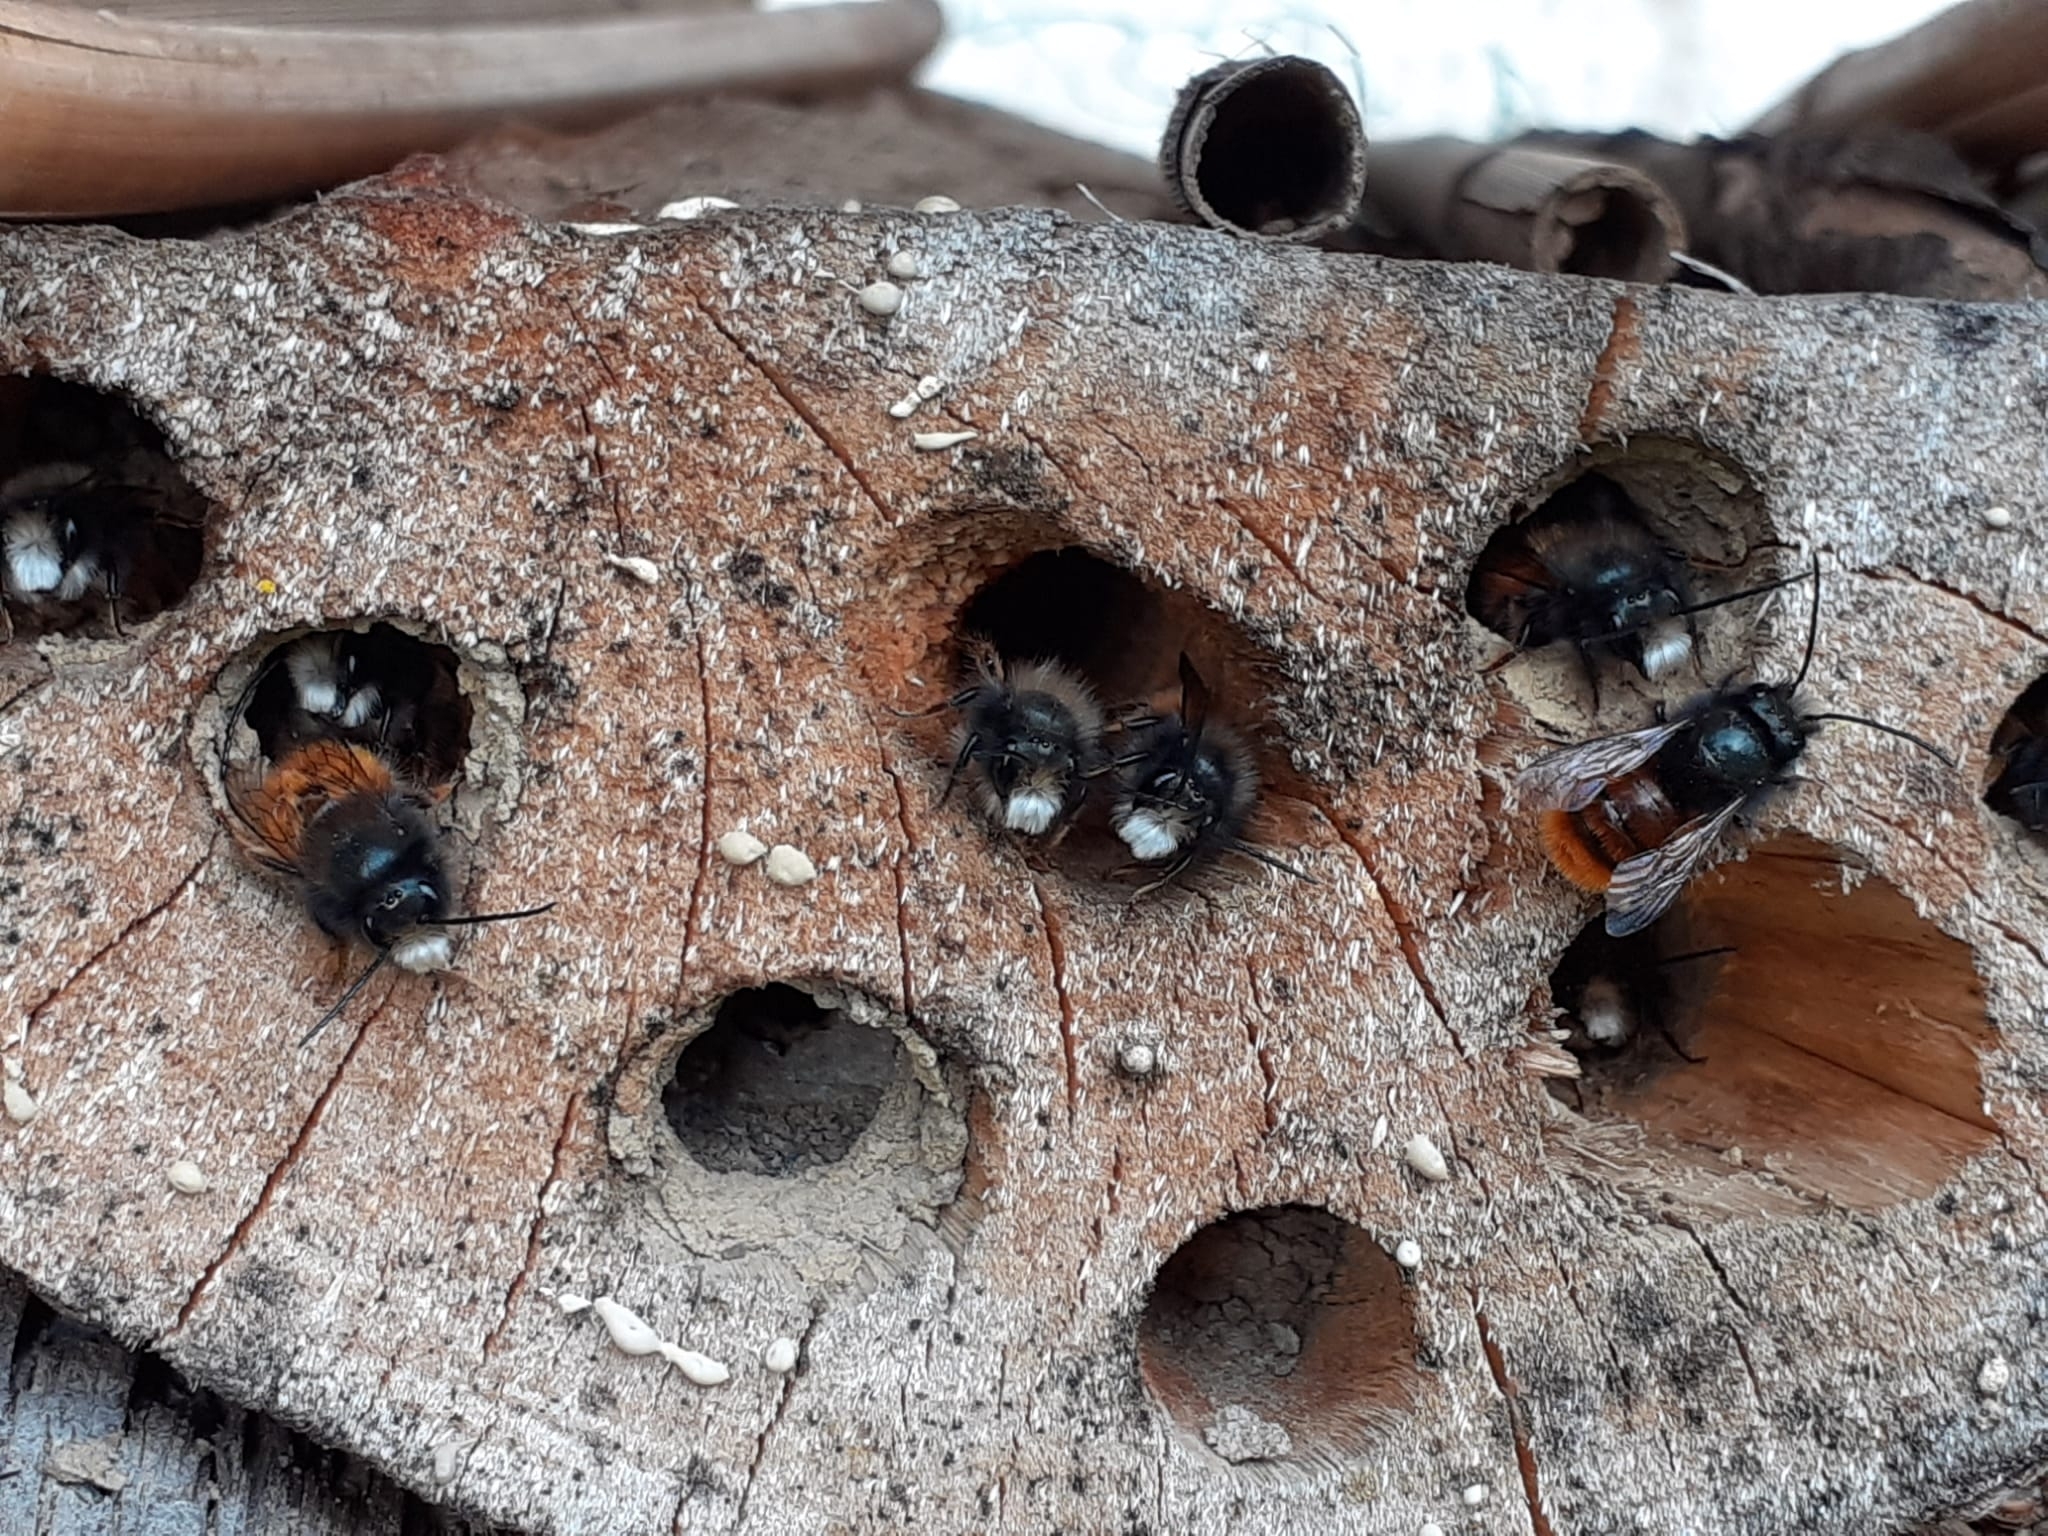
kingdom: Animalia
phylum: Arthropoda
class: Insecta
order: Hymenoptera
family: Megachilidae
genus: Osmia
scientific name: Osmia cornuta
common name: Mason bee
